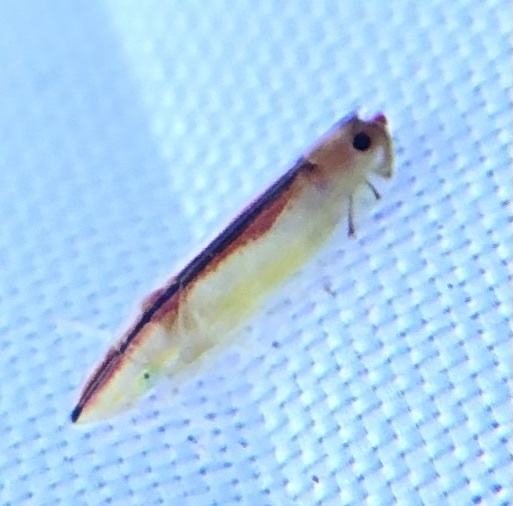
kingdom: Animalia
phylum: Arthropoda
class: Insecta
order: Hemiptera
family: Cicadellidae
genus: Sophonia
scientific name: Sophonia orientalis
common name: Two-spotted leafhopper
